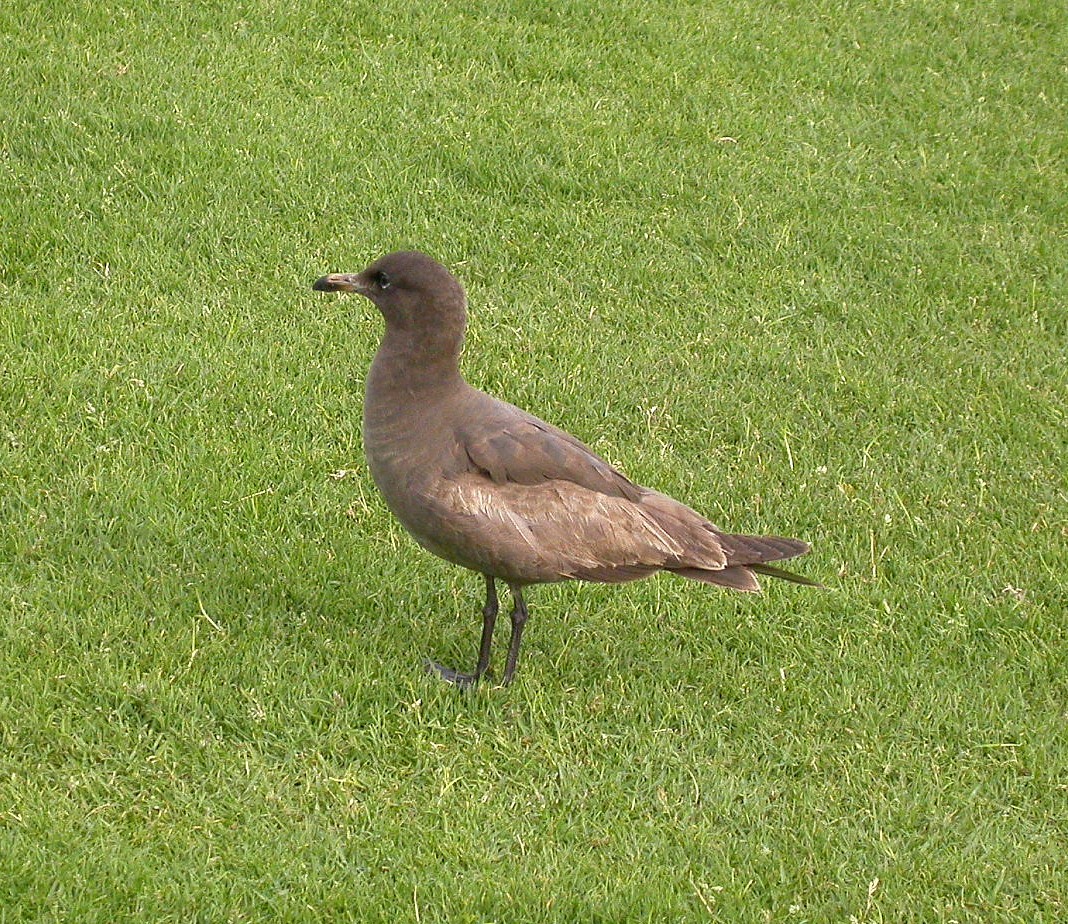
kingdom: Animalia
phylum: Chordata
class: Aves
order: Charadriiformes
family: Laridae
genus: Larus
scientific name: Larus heermanni
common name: Heermann's gull
